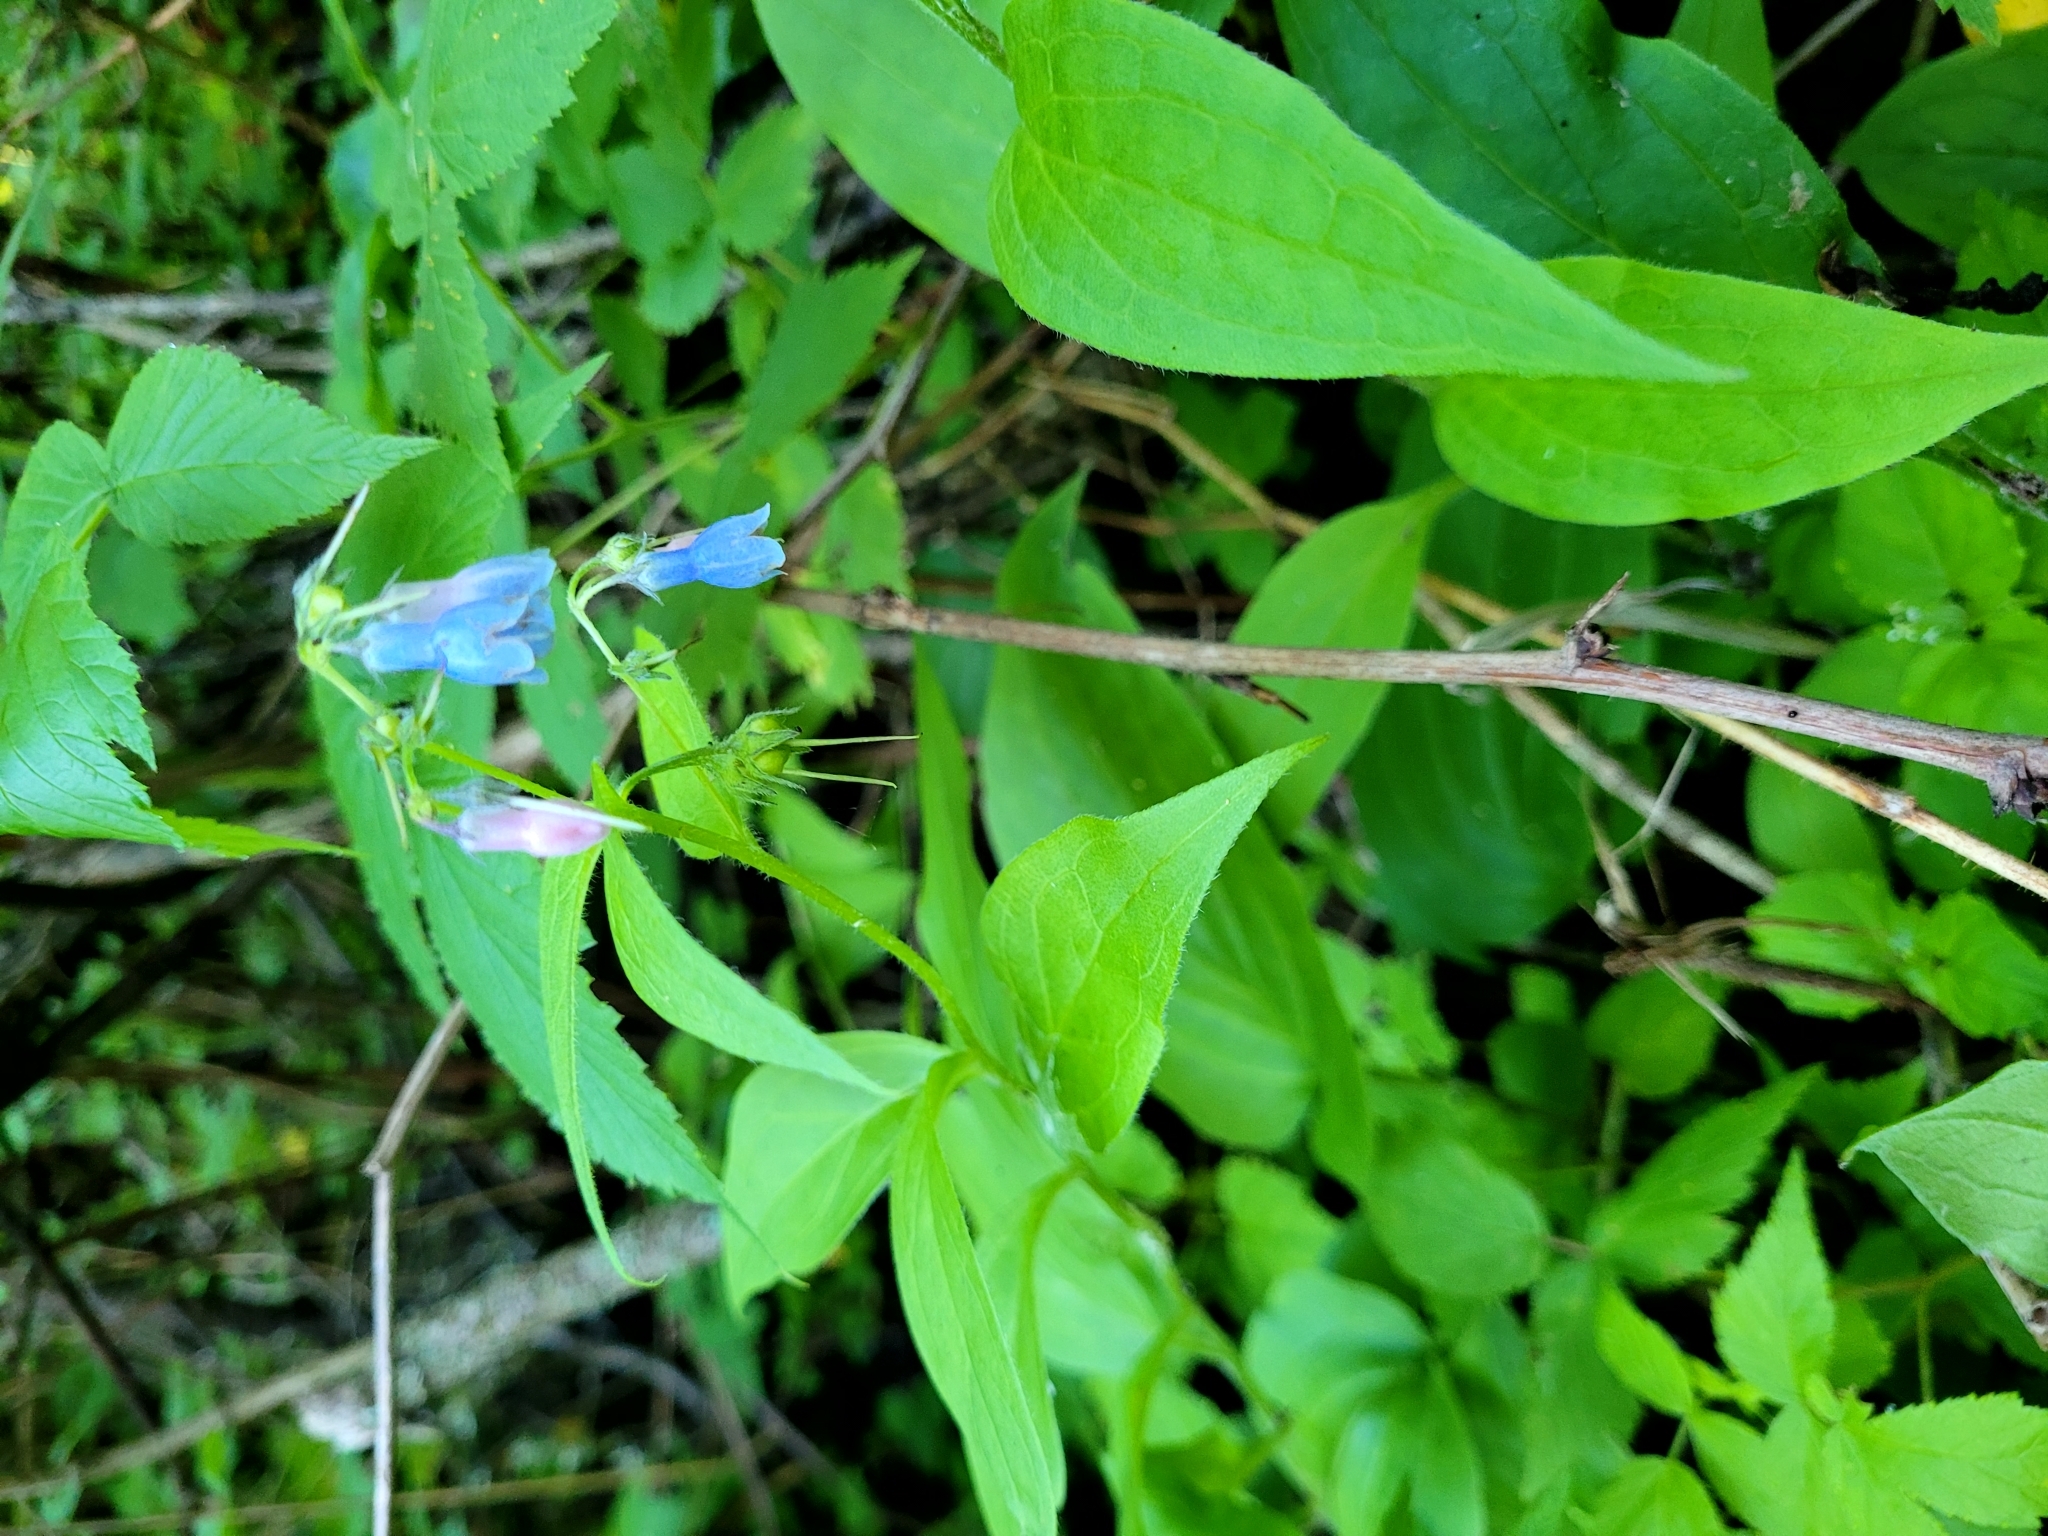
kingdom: Plantae
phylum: Tracheophyta
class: Magnoliopsida
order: Boraginales
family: Boraginaceae
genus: Mertensia
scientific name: Mertensia paniculata
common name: Panicled bluebells
